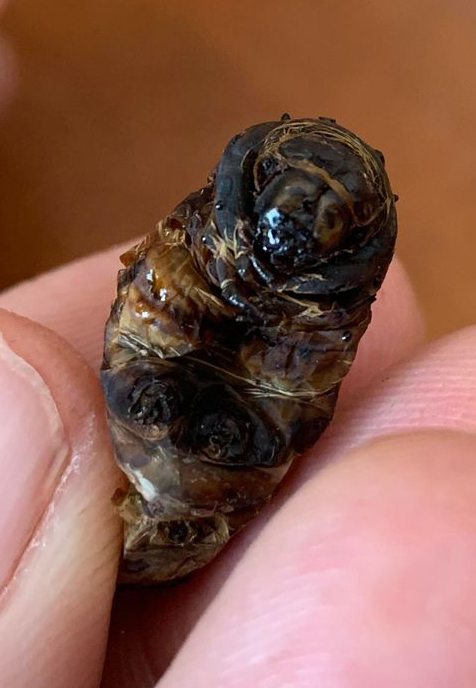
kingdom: Animalia
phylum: Arthropoda
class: Insecta
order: Lepidoptera
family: Saturniidae
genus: Callosamia
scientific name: Callosamia promethea
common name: Promethea silkmoth
